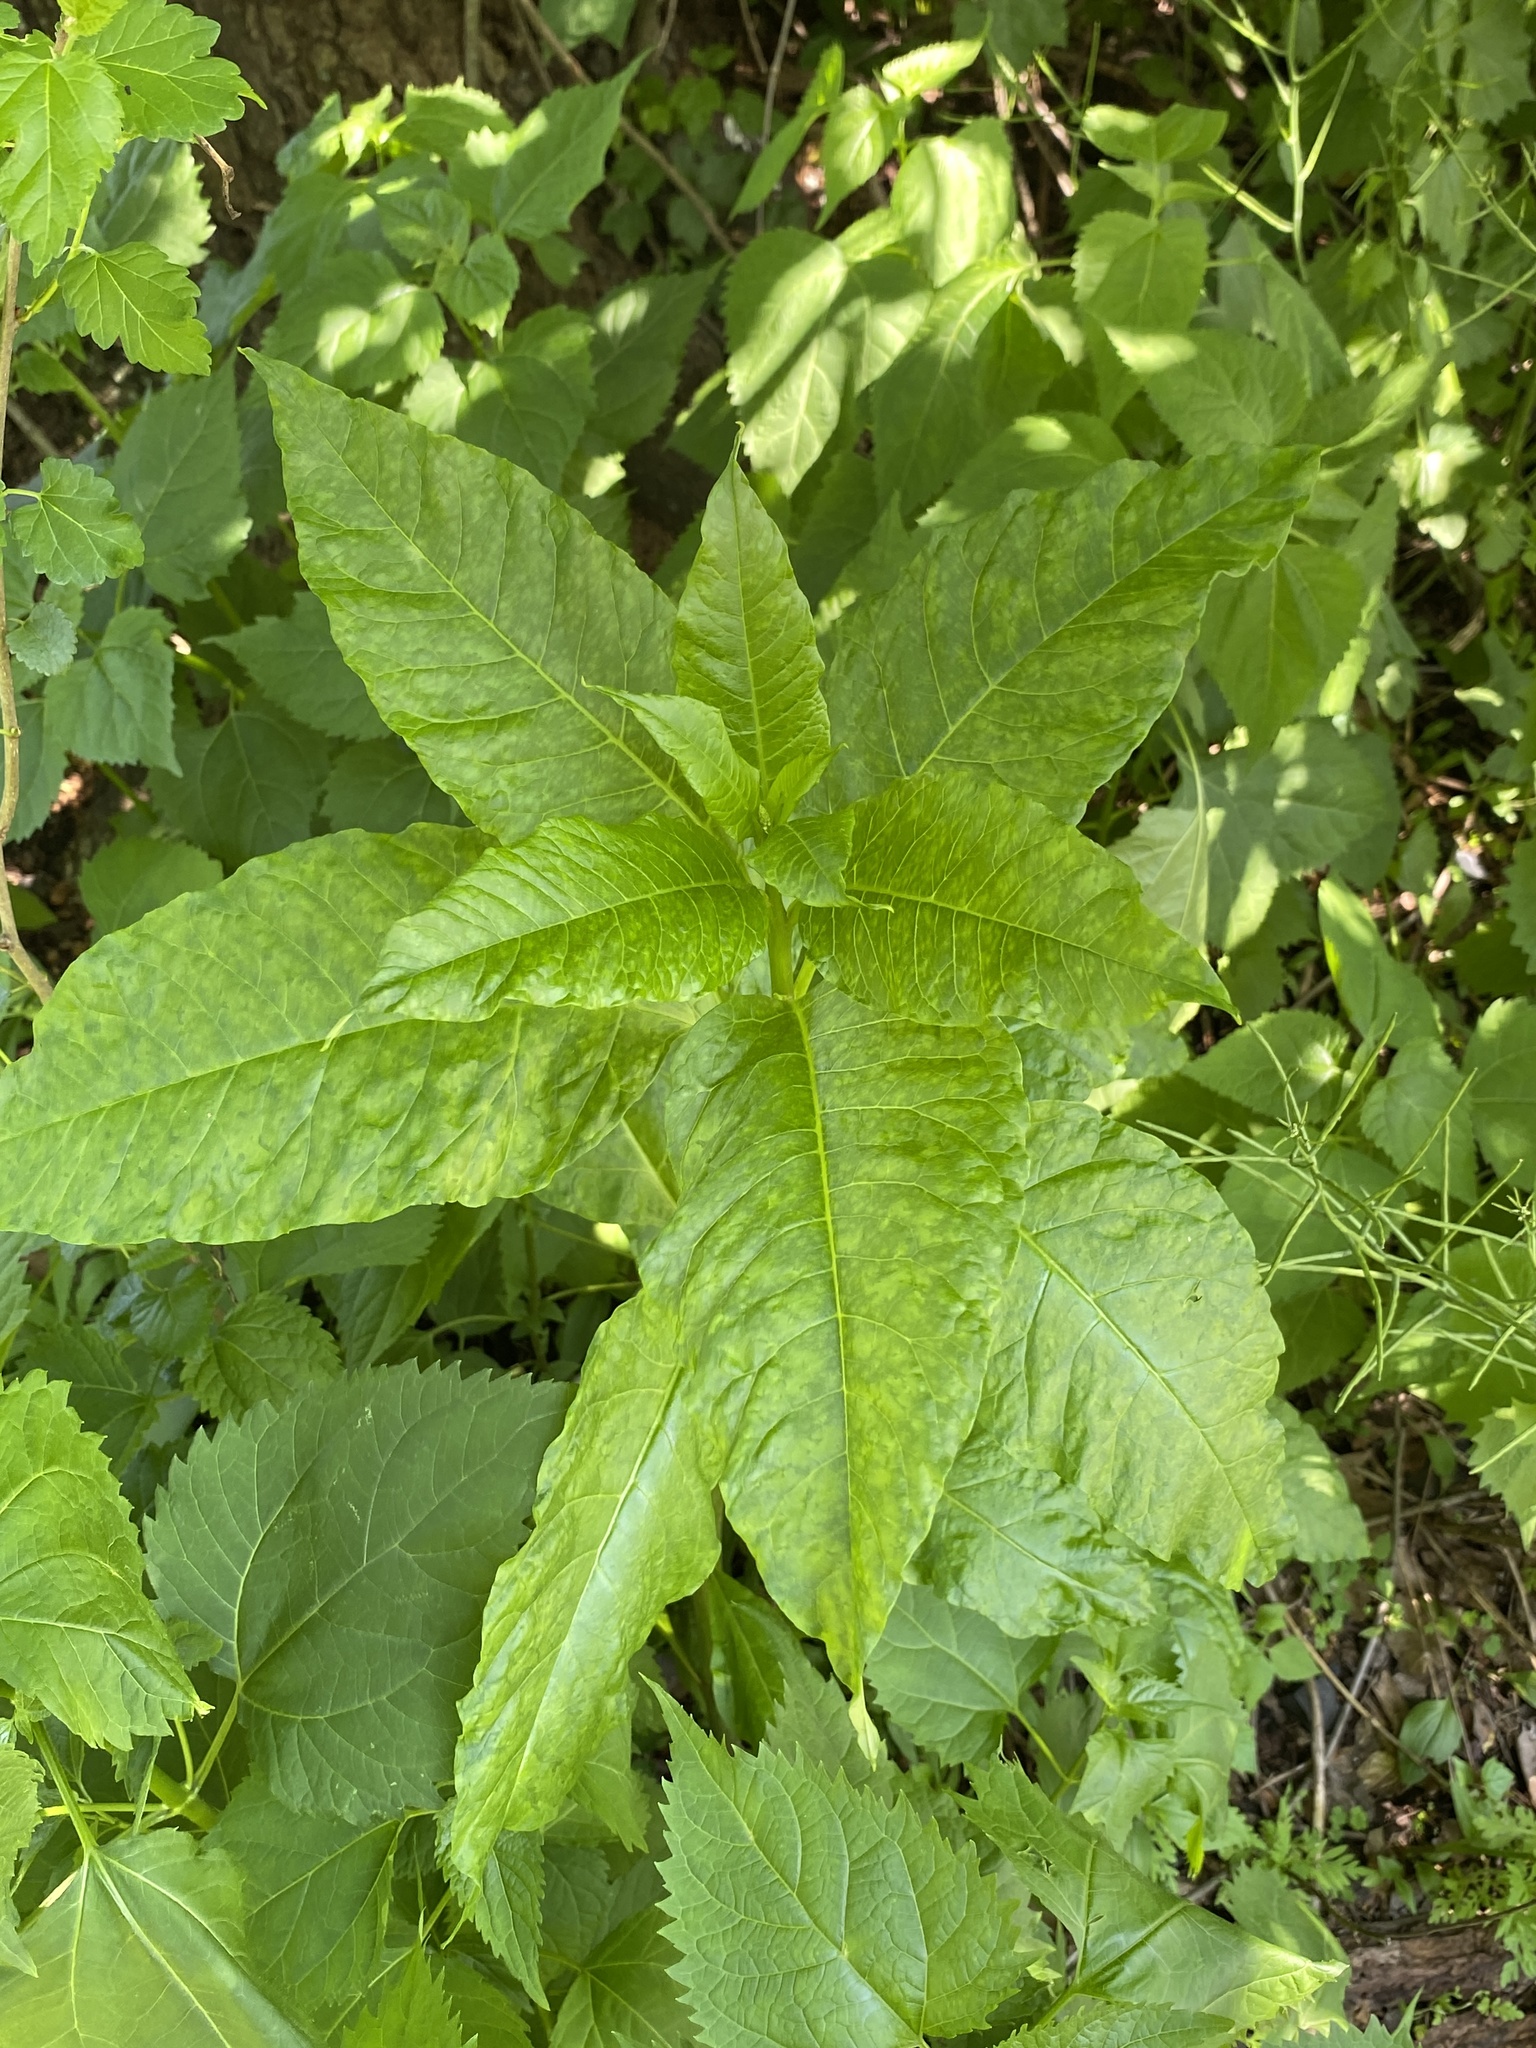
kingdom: Plantae
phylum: Tracheophyta
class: Magnoliopsida
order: Caryophyllales
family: Phytolaccaceae
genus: Phytolacca
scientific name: Phytolacca americana
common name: American pokeweed
